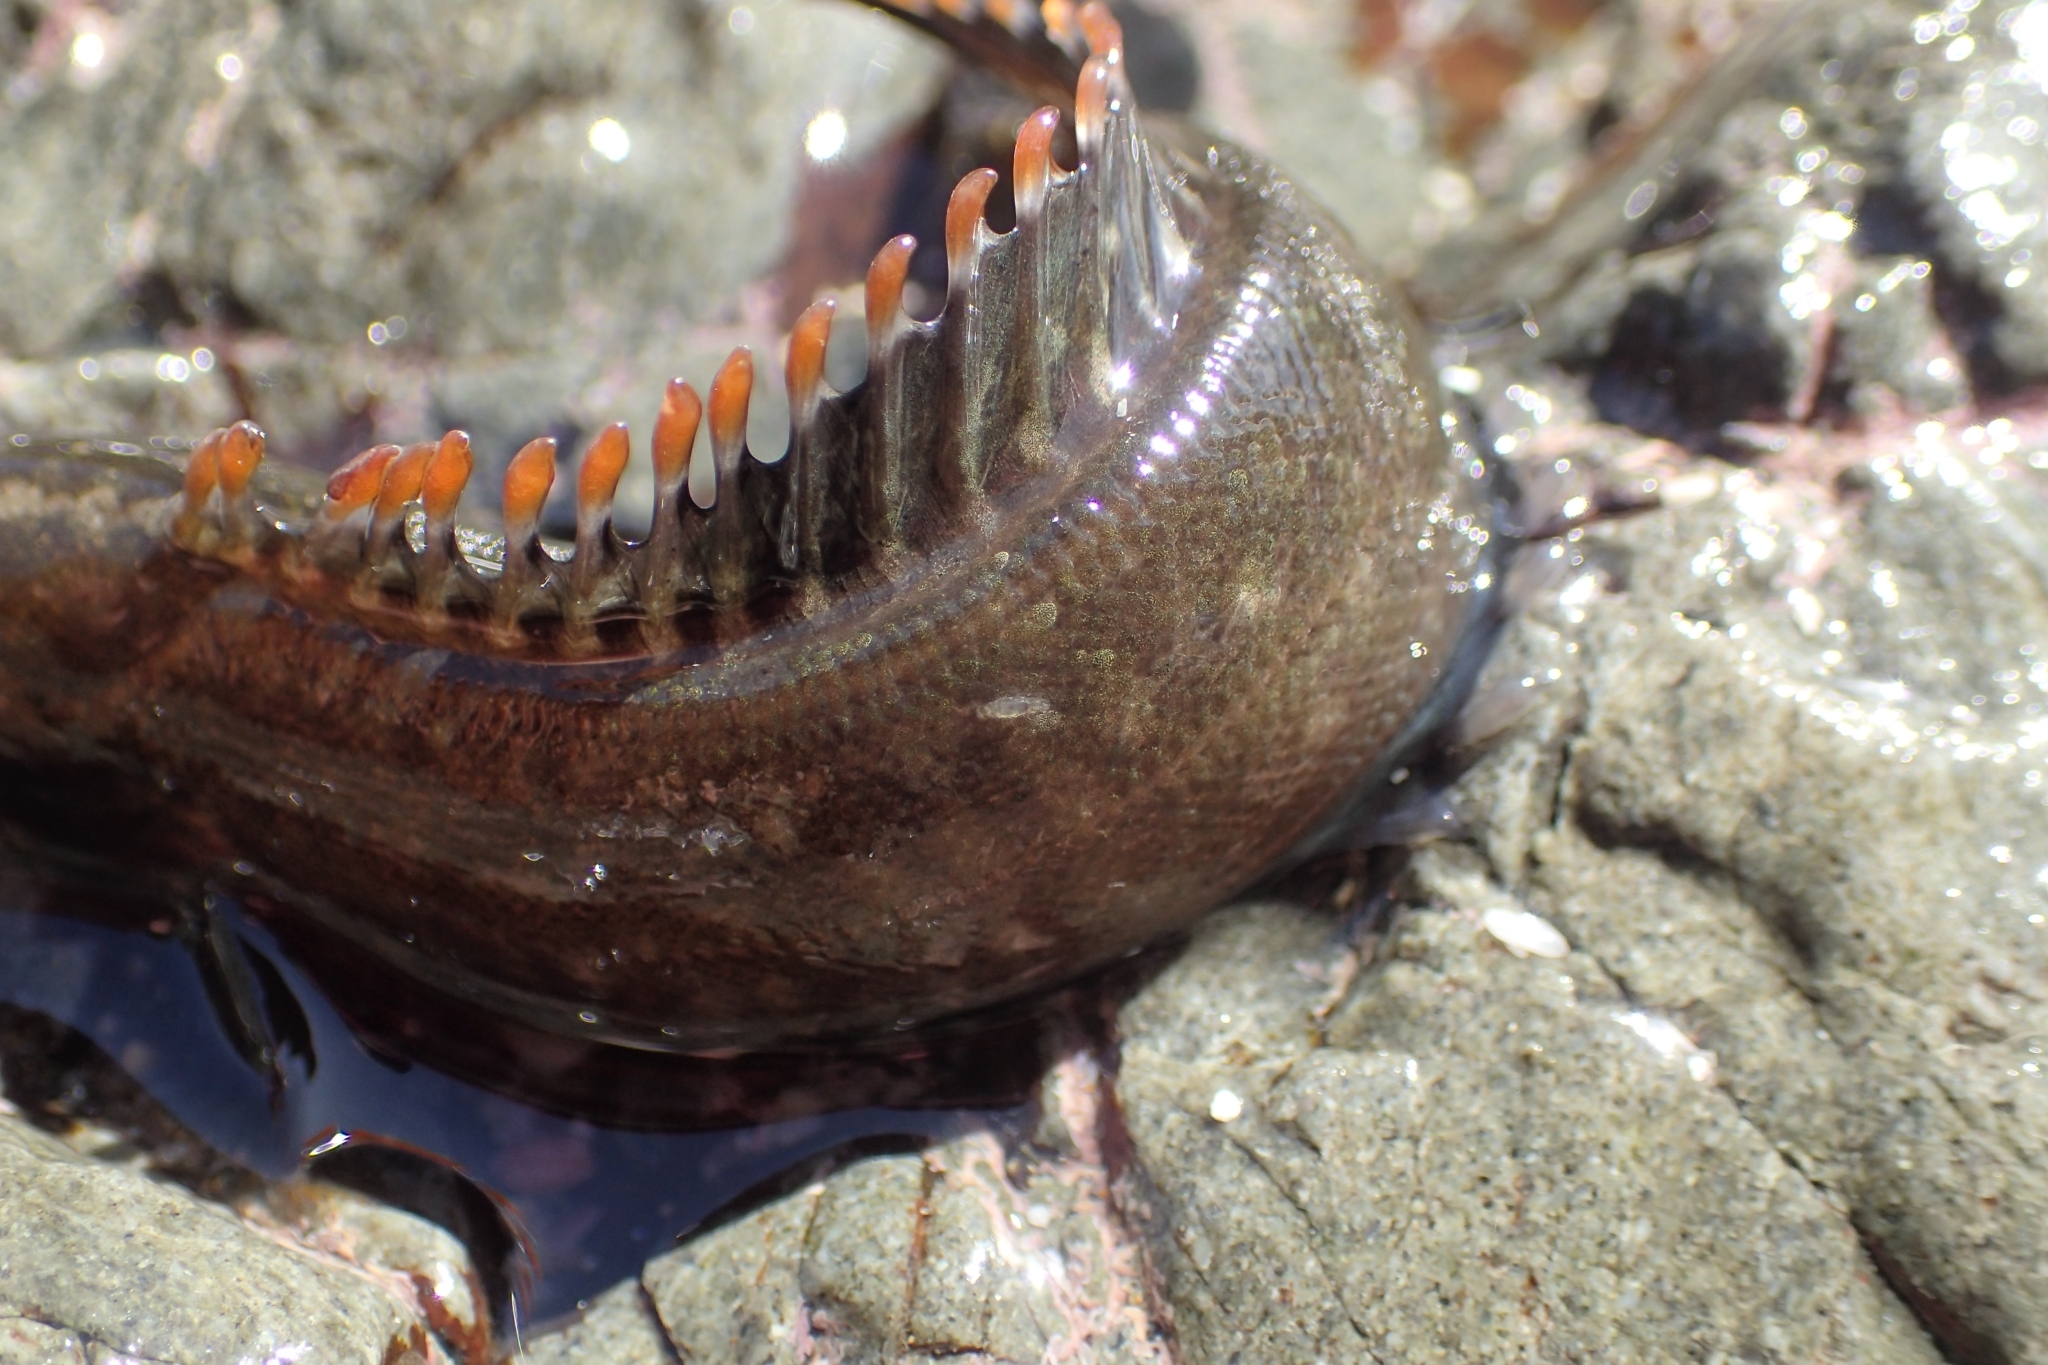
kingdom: Animalia
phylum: Chordata
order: Perciformes
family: Plesiopidae
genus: Acanthoclinus
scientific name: Acanthoclinus fuscus
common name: Olive rockfish
